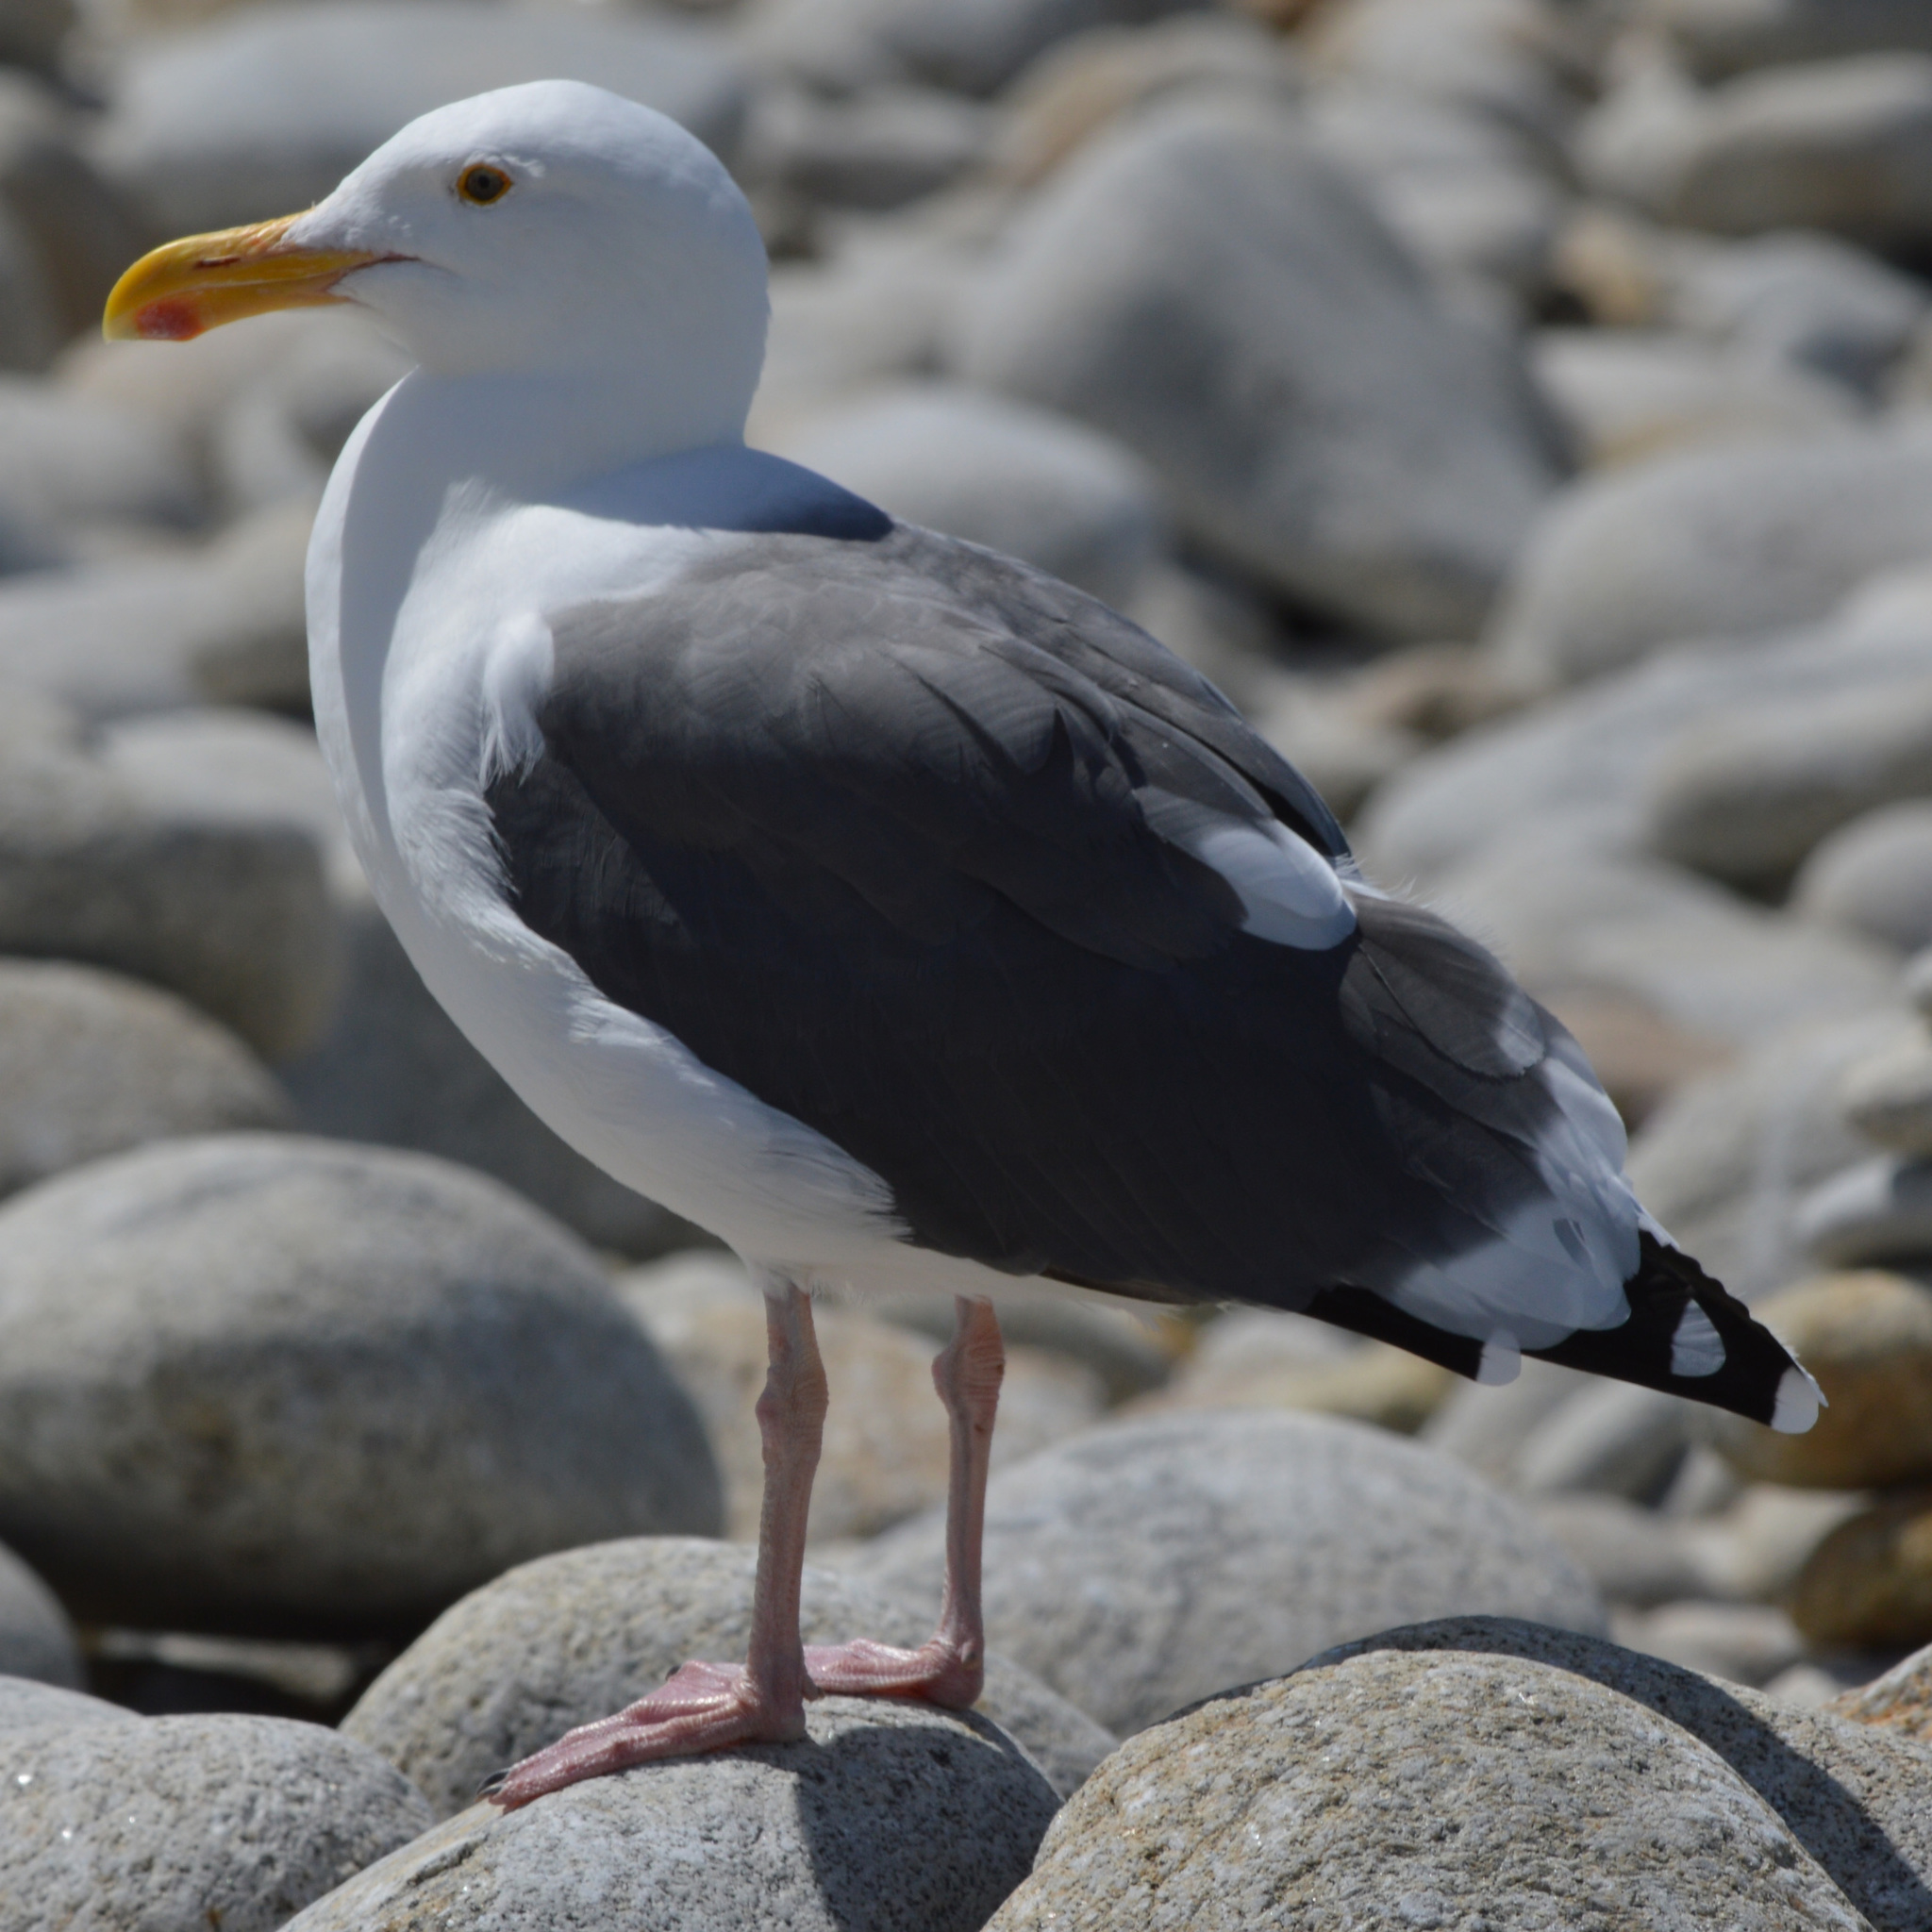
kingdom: Animalia
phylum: Chordata
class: Aves
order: Charadriiformes
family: Laridae
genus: Larus
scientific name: Larus occidentalis
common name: Western gull
